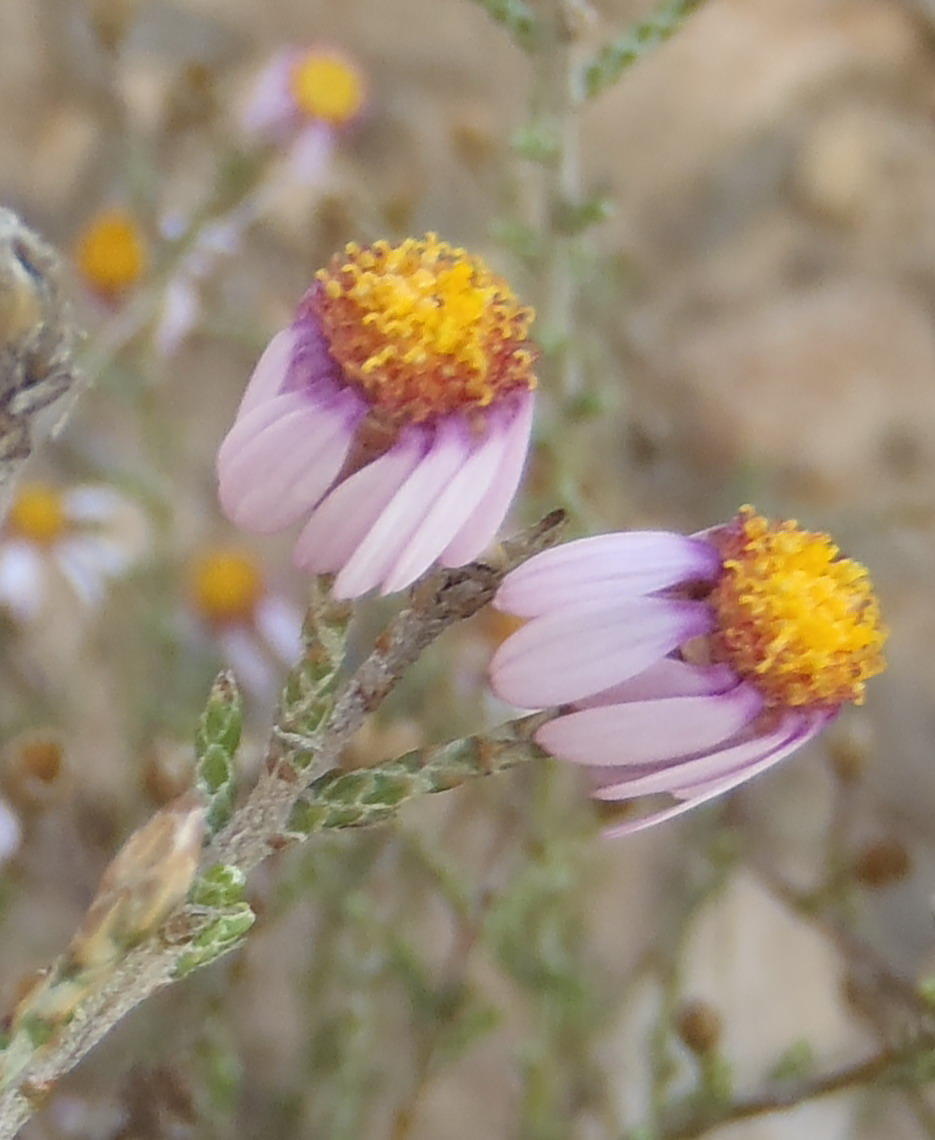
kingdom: Plantae
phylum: Tracheophyta
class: Magnoliopsida
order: Asterales
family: Asteraceae
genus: Phymaspermum
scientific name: Phymaspermum appressum
